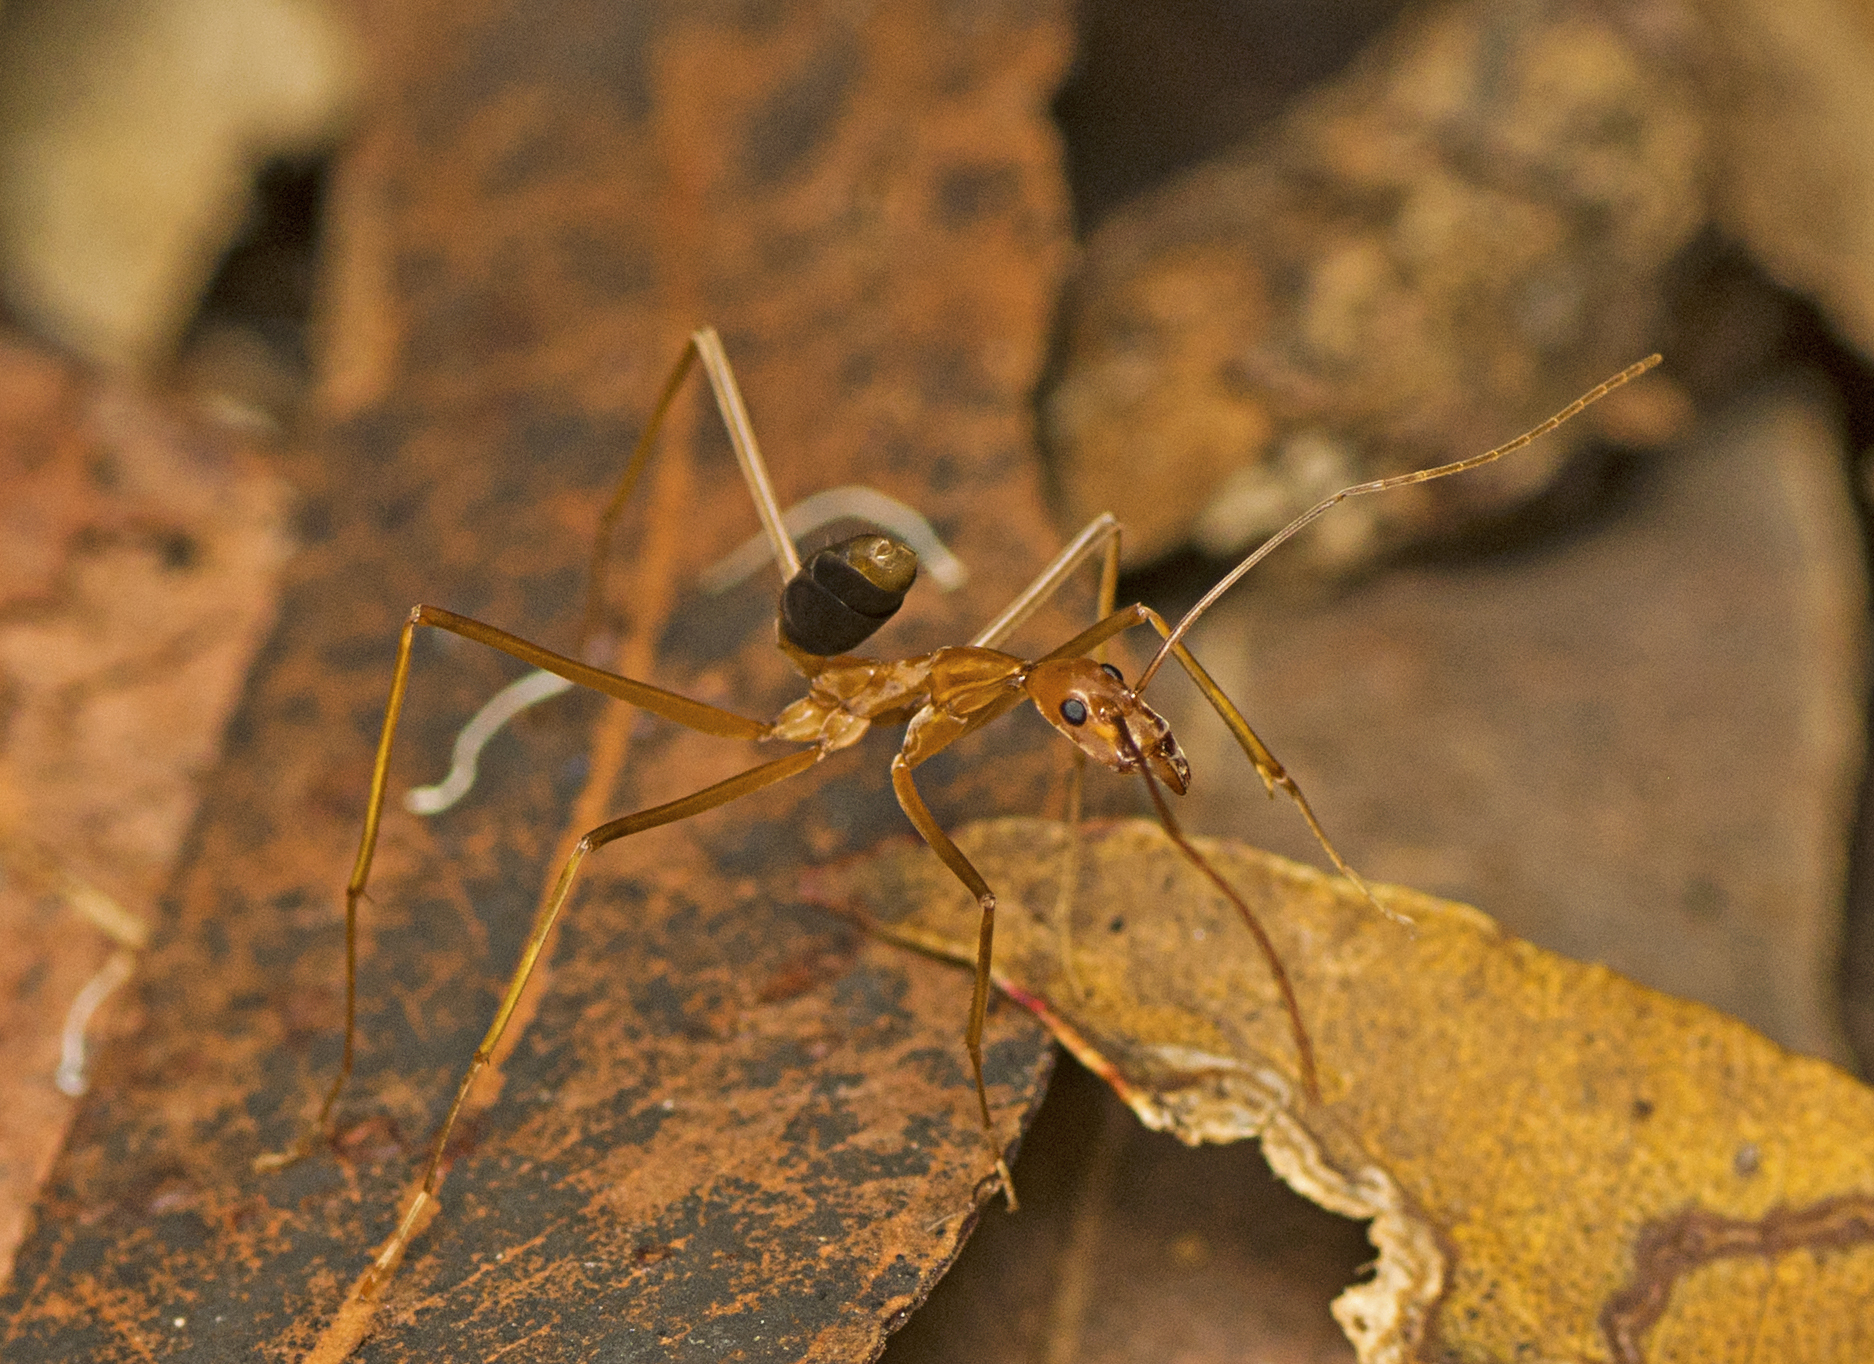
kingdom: Animalia
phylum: Arthropoda
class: Insecta
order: Hymenoptera
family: Formicidae
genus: Leptomyrmex
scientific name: Leptomyrmex rufipes
